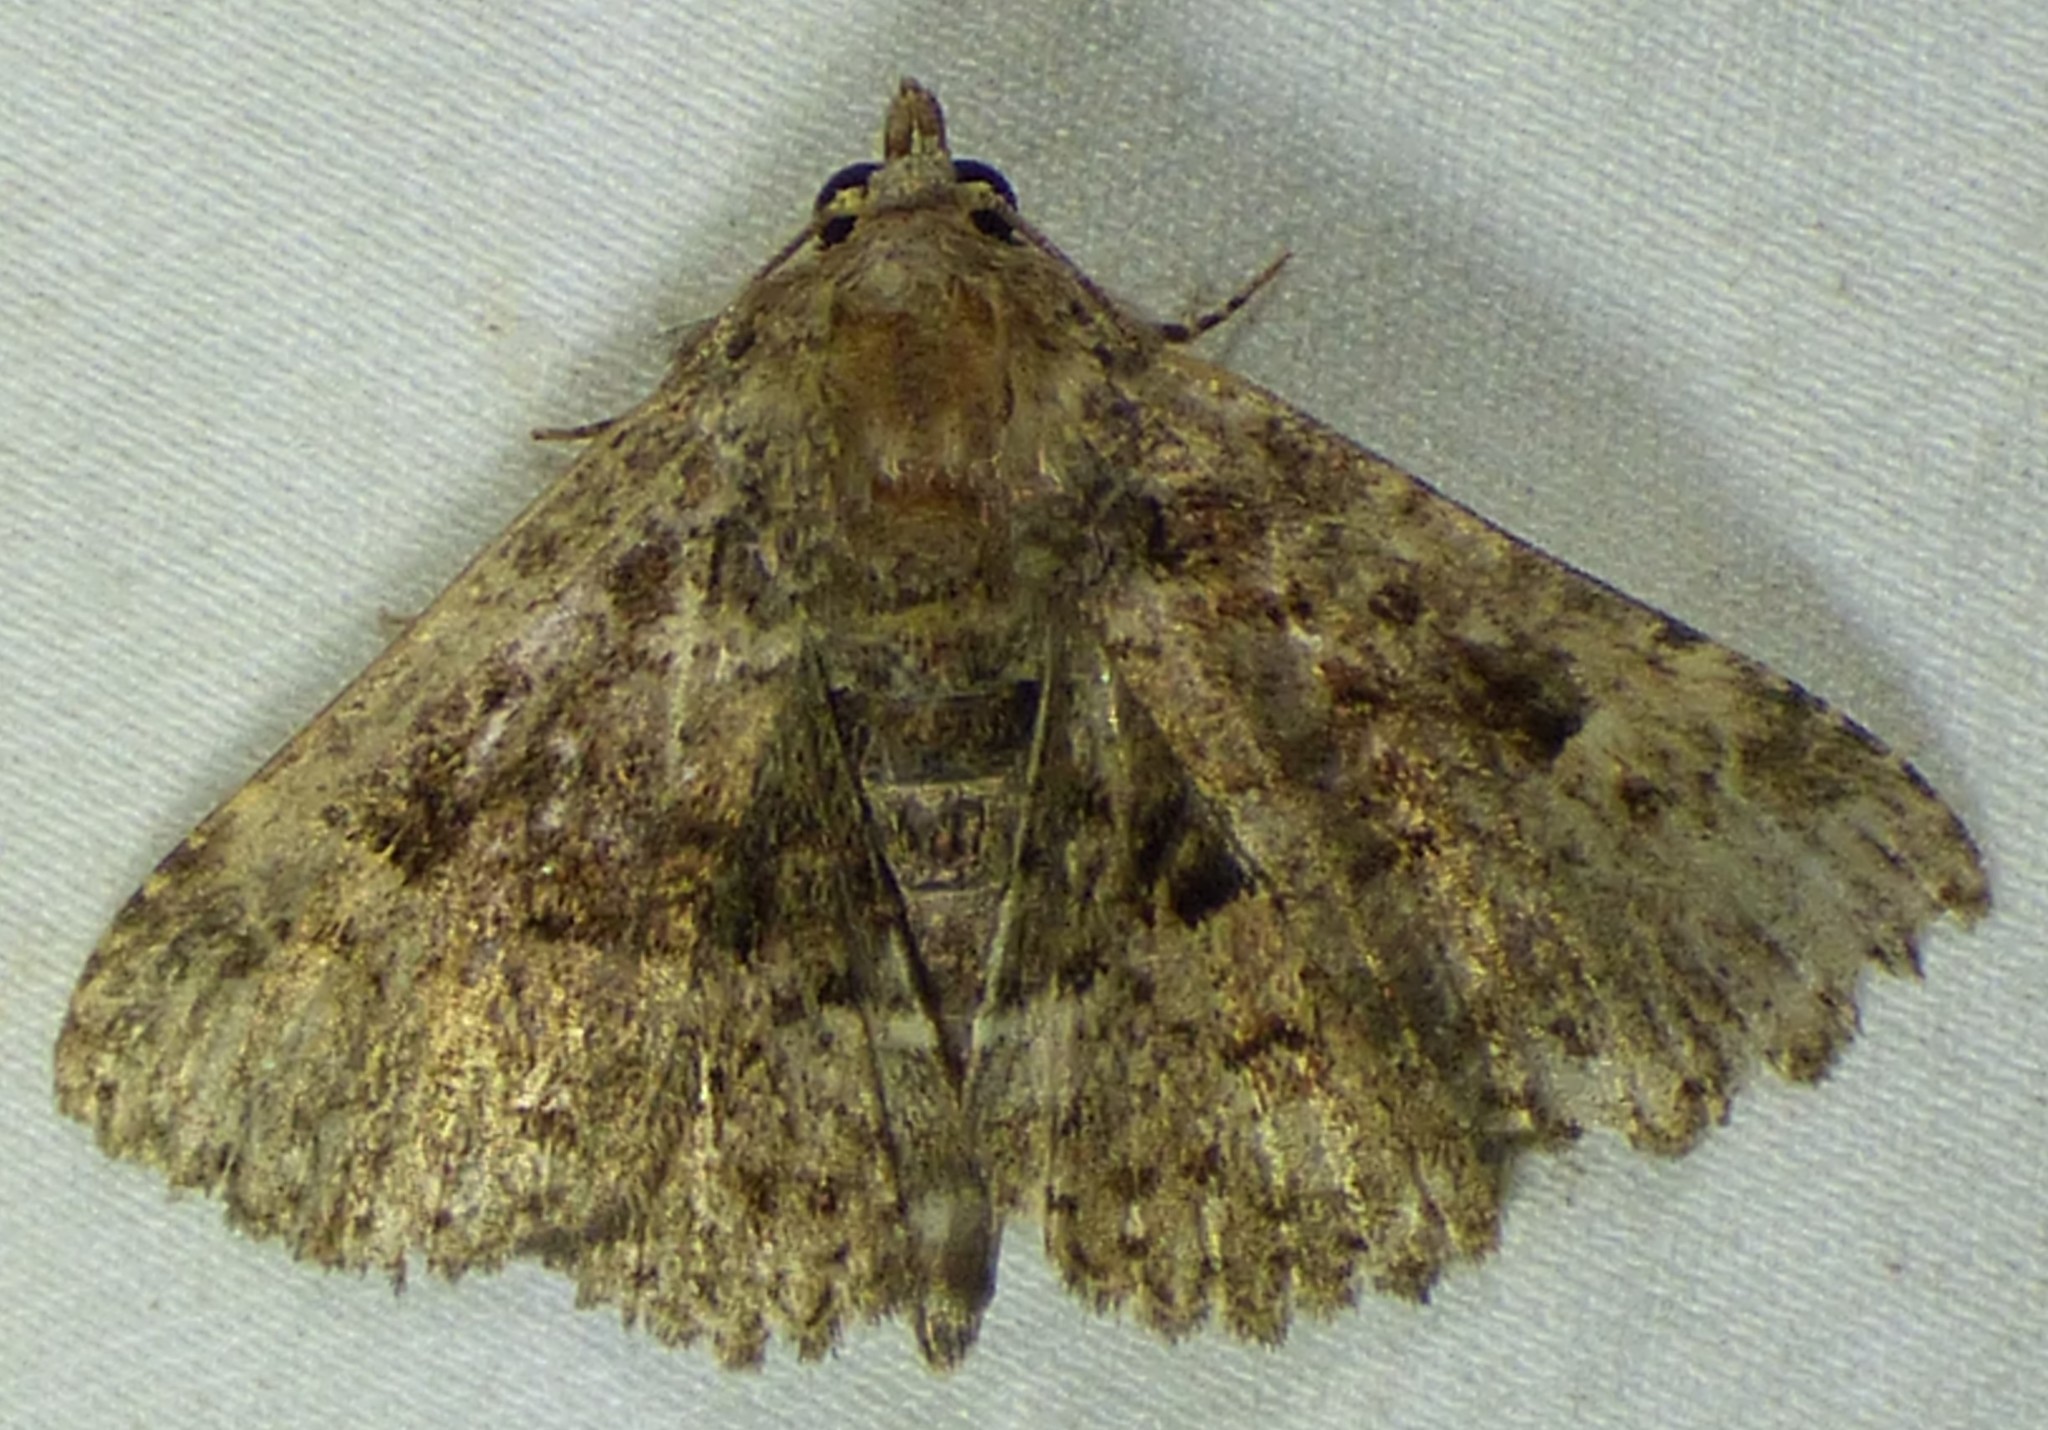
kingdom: Animalia
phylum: Arthropoda
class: Insecta
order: Lepidoptera
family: Erebidae
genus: Metalectra
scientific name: Metalectra discalis
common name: Common fungus moth
